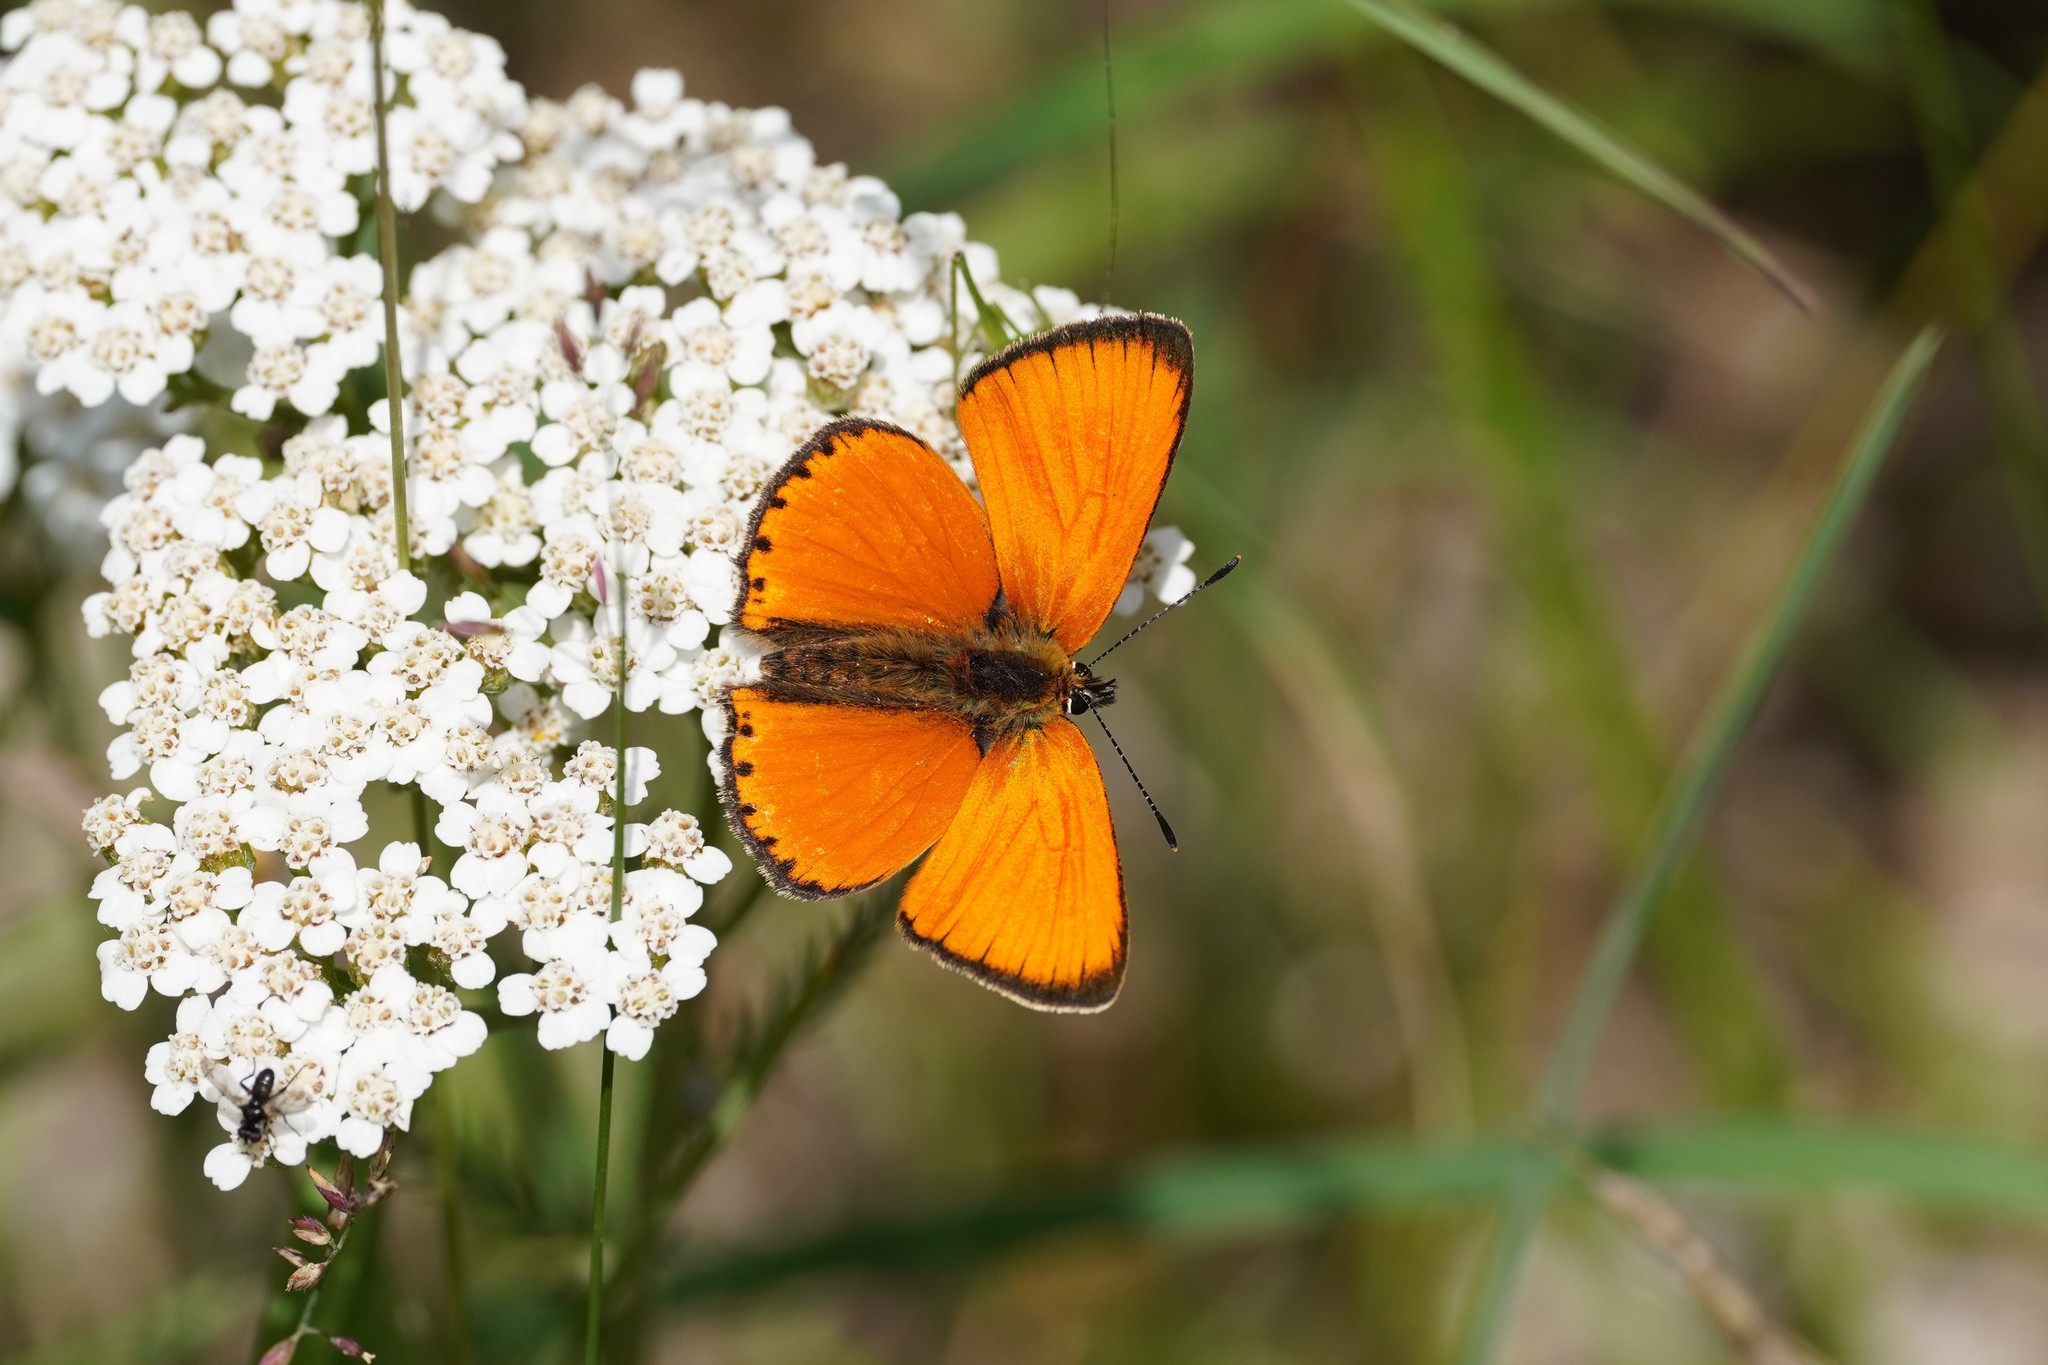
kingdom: Animalia
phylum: Arthropoda
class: Insecta
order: Lepidoptera
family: Lycaenidae
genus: Lycaena
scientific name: Lycaena virgaureae
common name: Scarce copper
